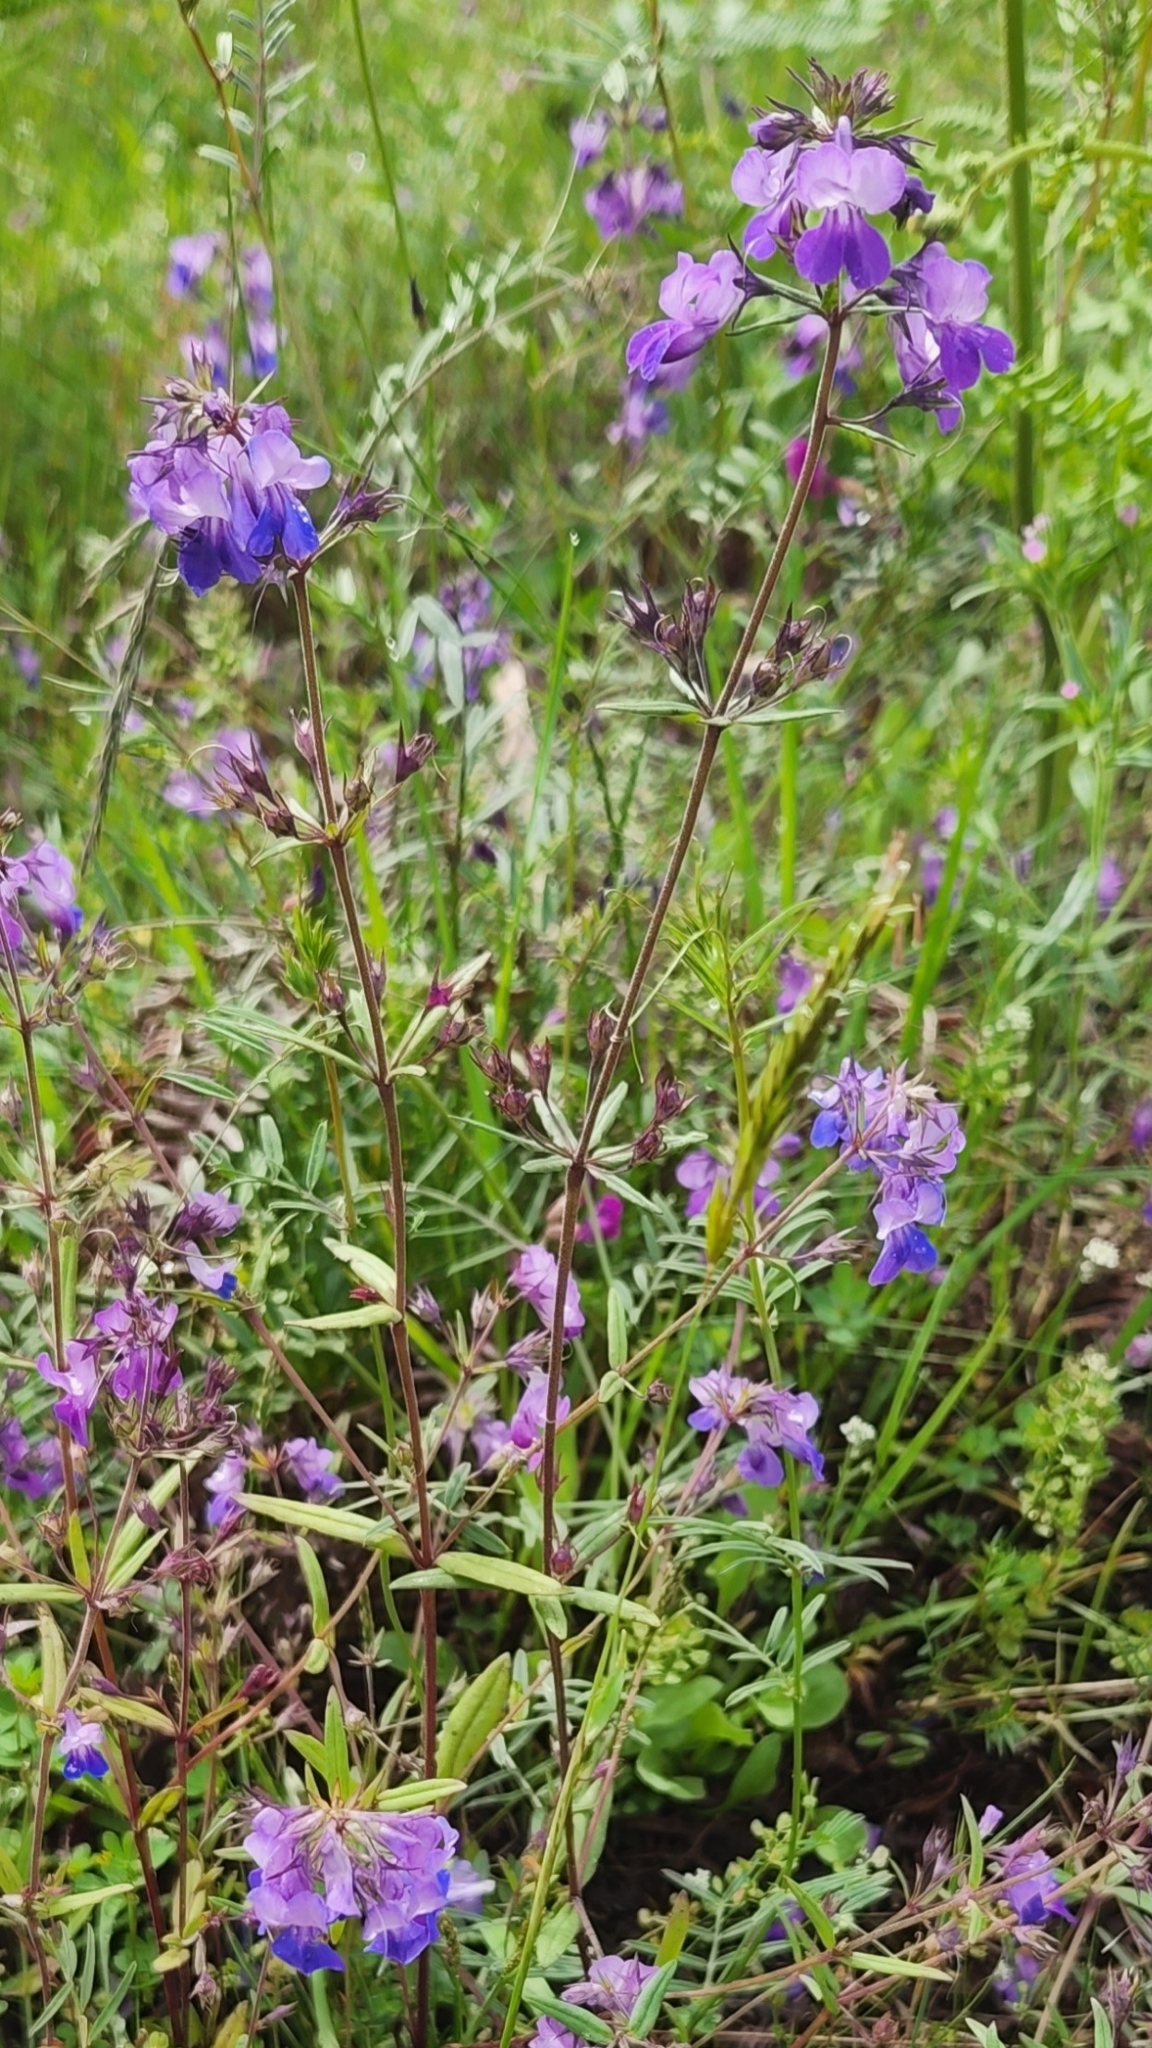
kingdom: Plantae
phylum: Tracheophyta
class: Magnoliopsida
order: Lamiales
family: Plantaginaceae
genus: Collinsia
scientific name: Collinsia grandiflora
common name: Large-flower blue-eyed-mary
